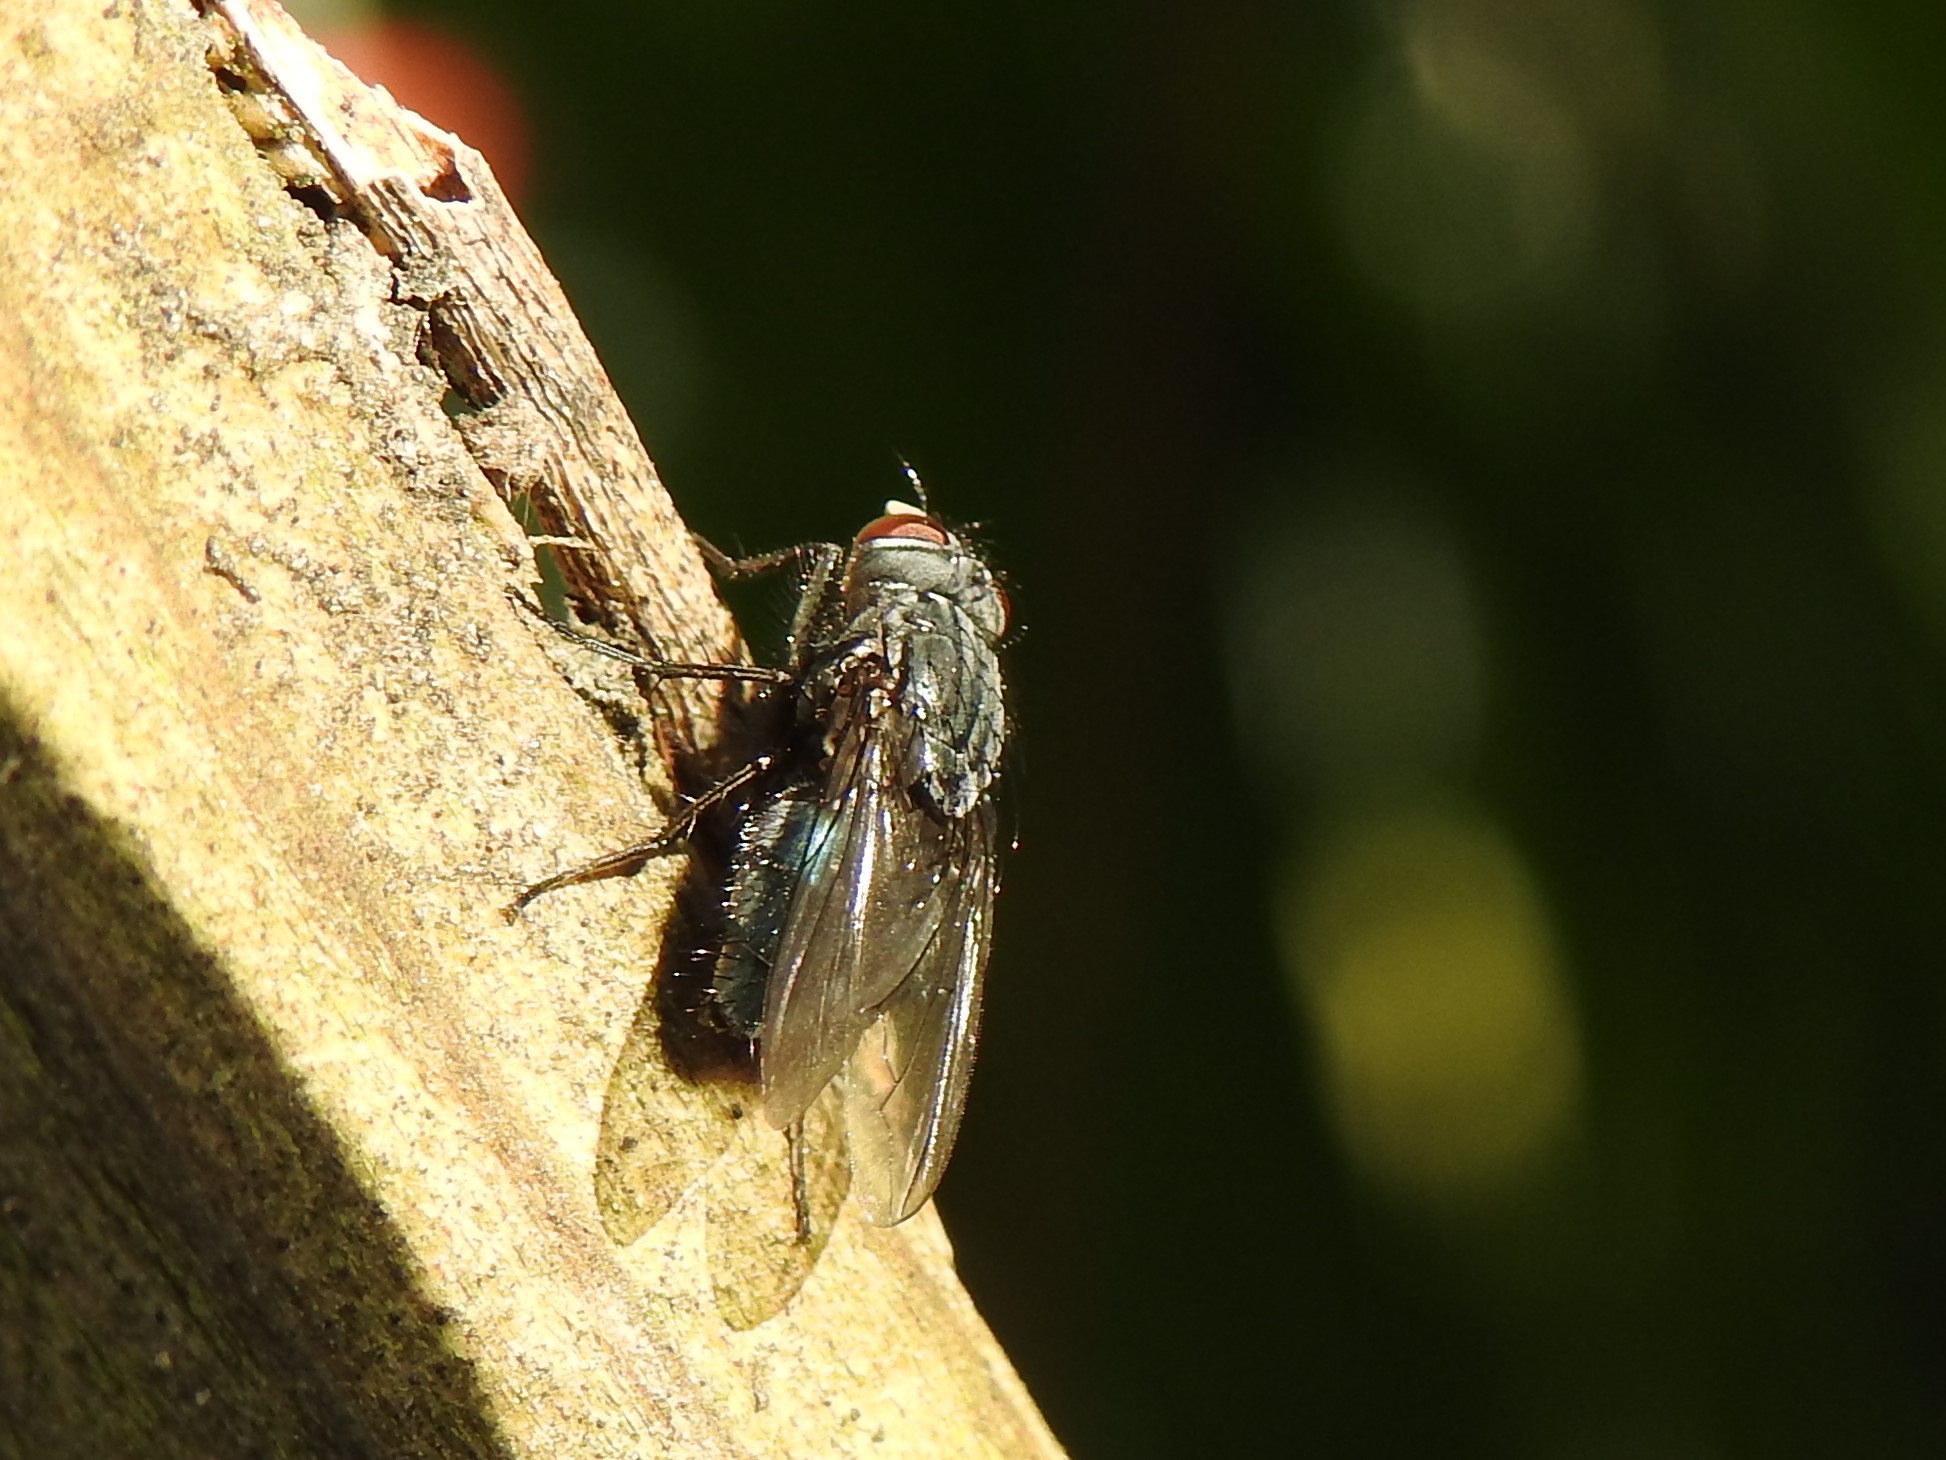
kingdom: Animalia
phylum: Arthropoda
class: Insecta
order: Diptera
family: Calliphoridae
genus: Calliphora
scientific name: Calliphora vicina
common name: Common blow flie
